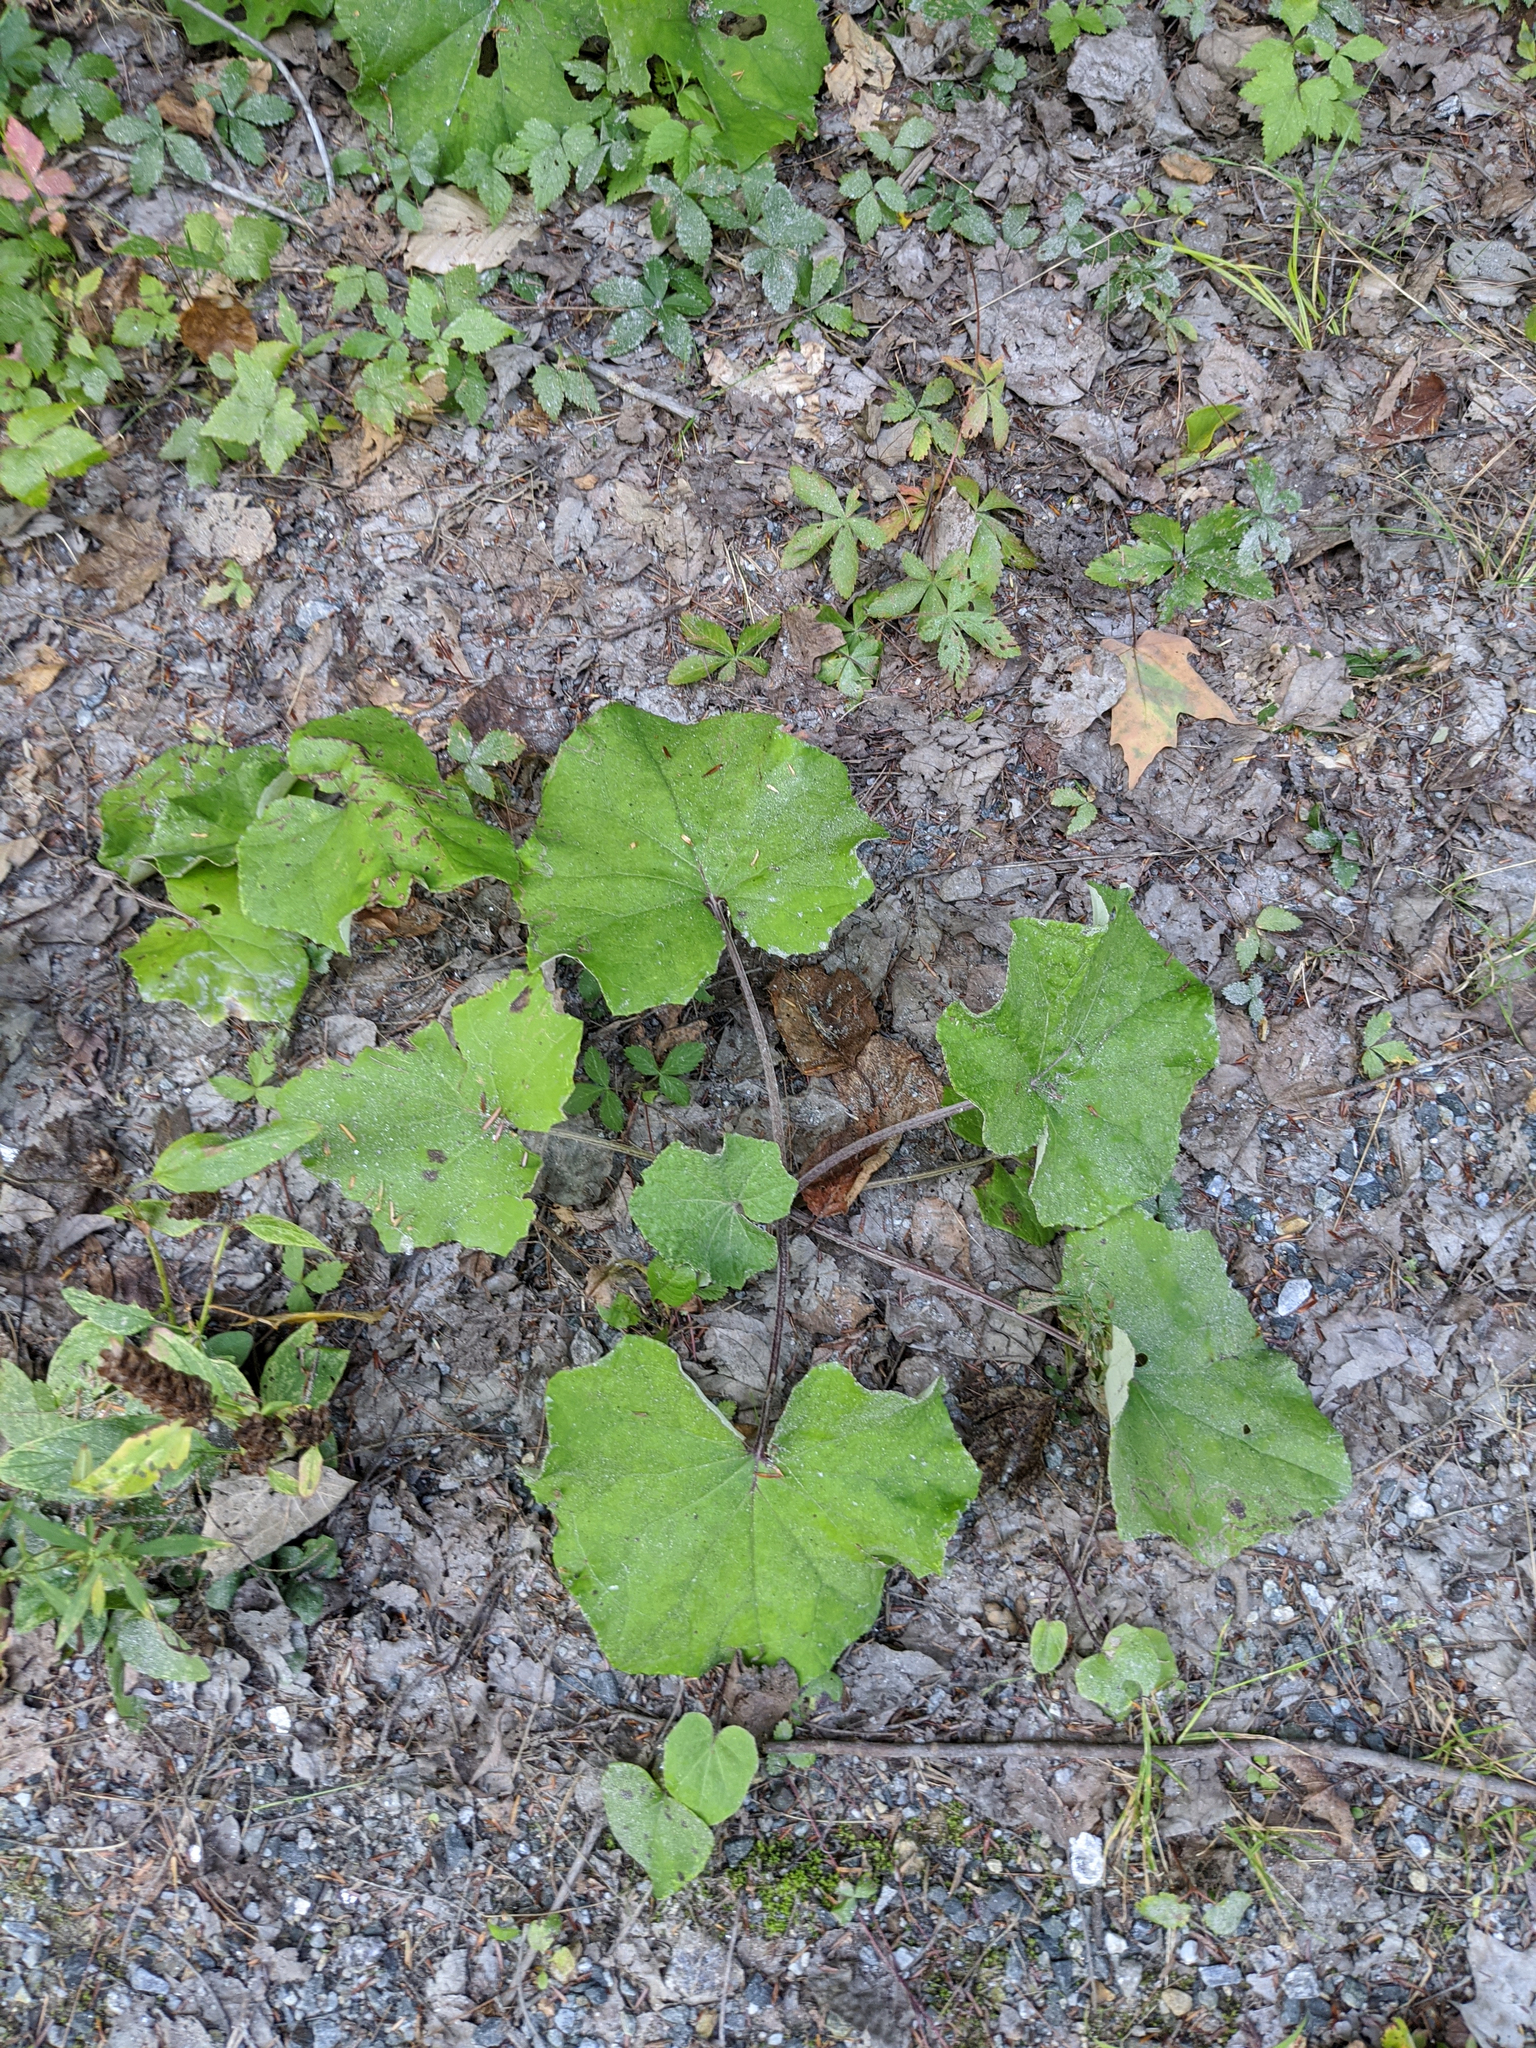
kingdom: Plantae
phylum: Tracheophyta
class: Magnoliopsida
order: Asterales
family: Asteraceae
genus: Tussilago
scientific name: Tussilago farfara
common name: Coltsfoot
